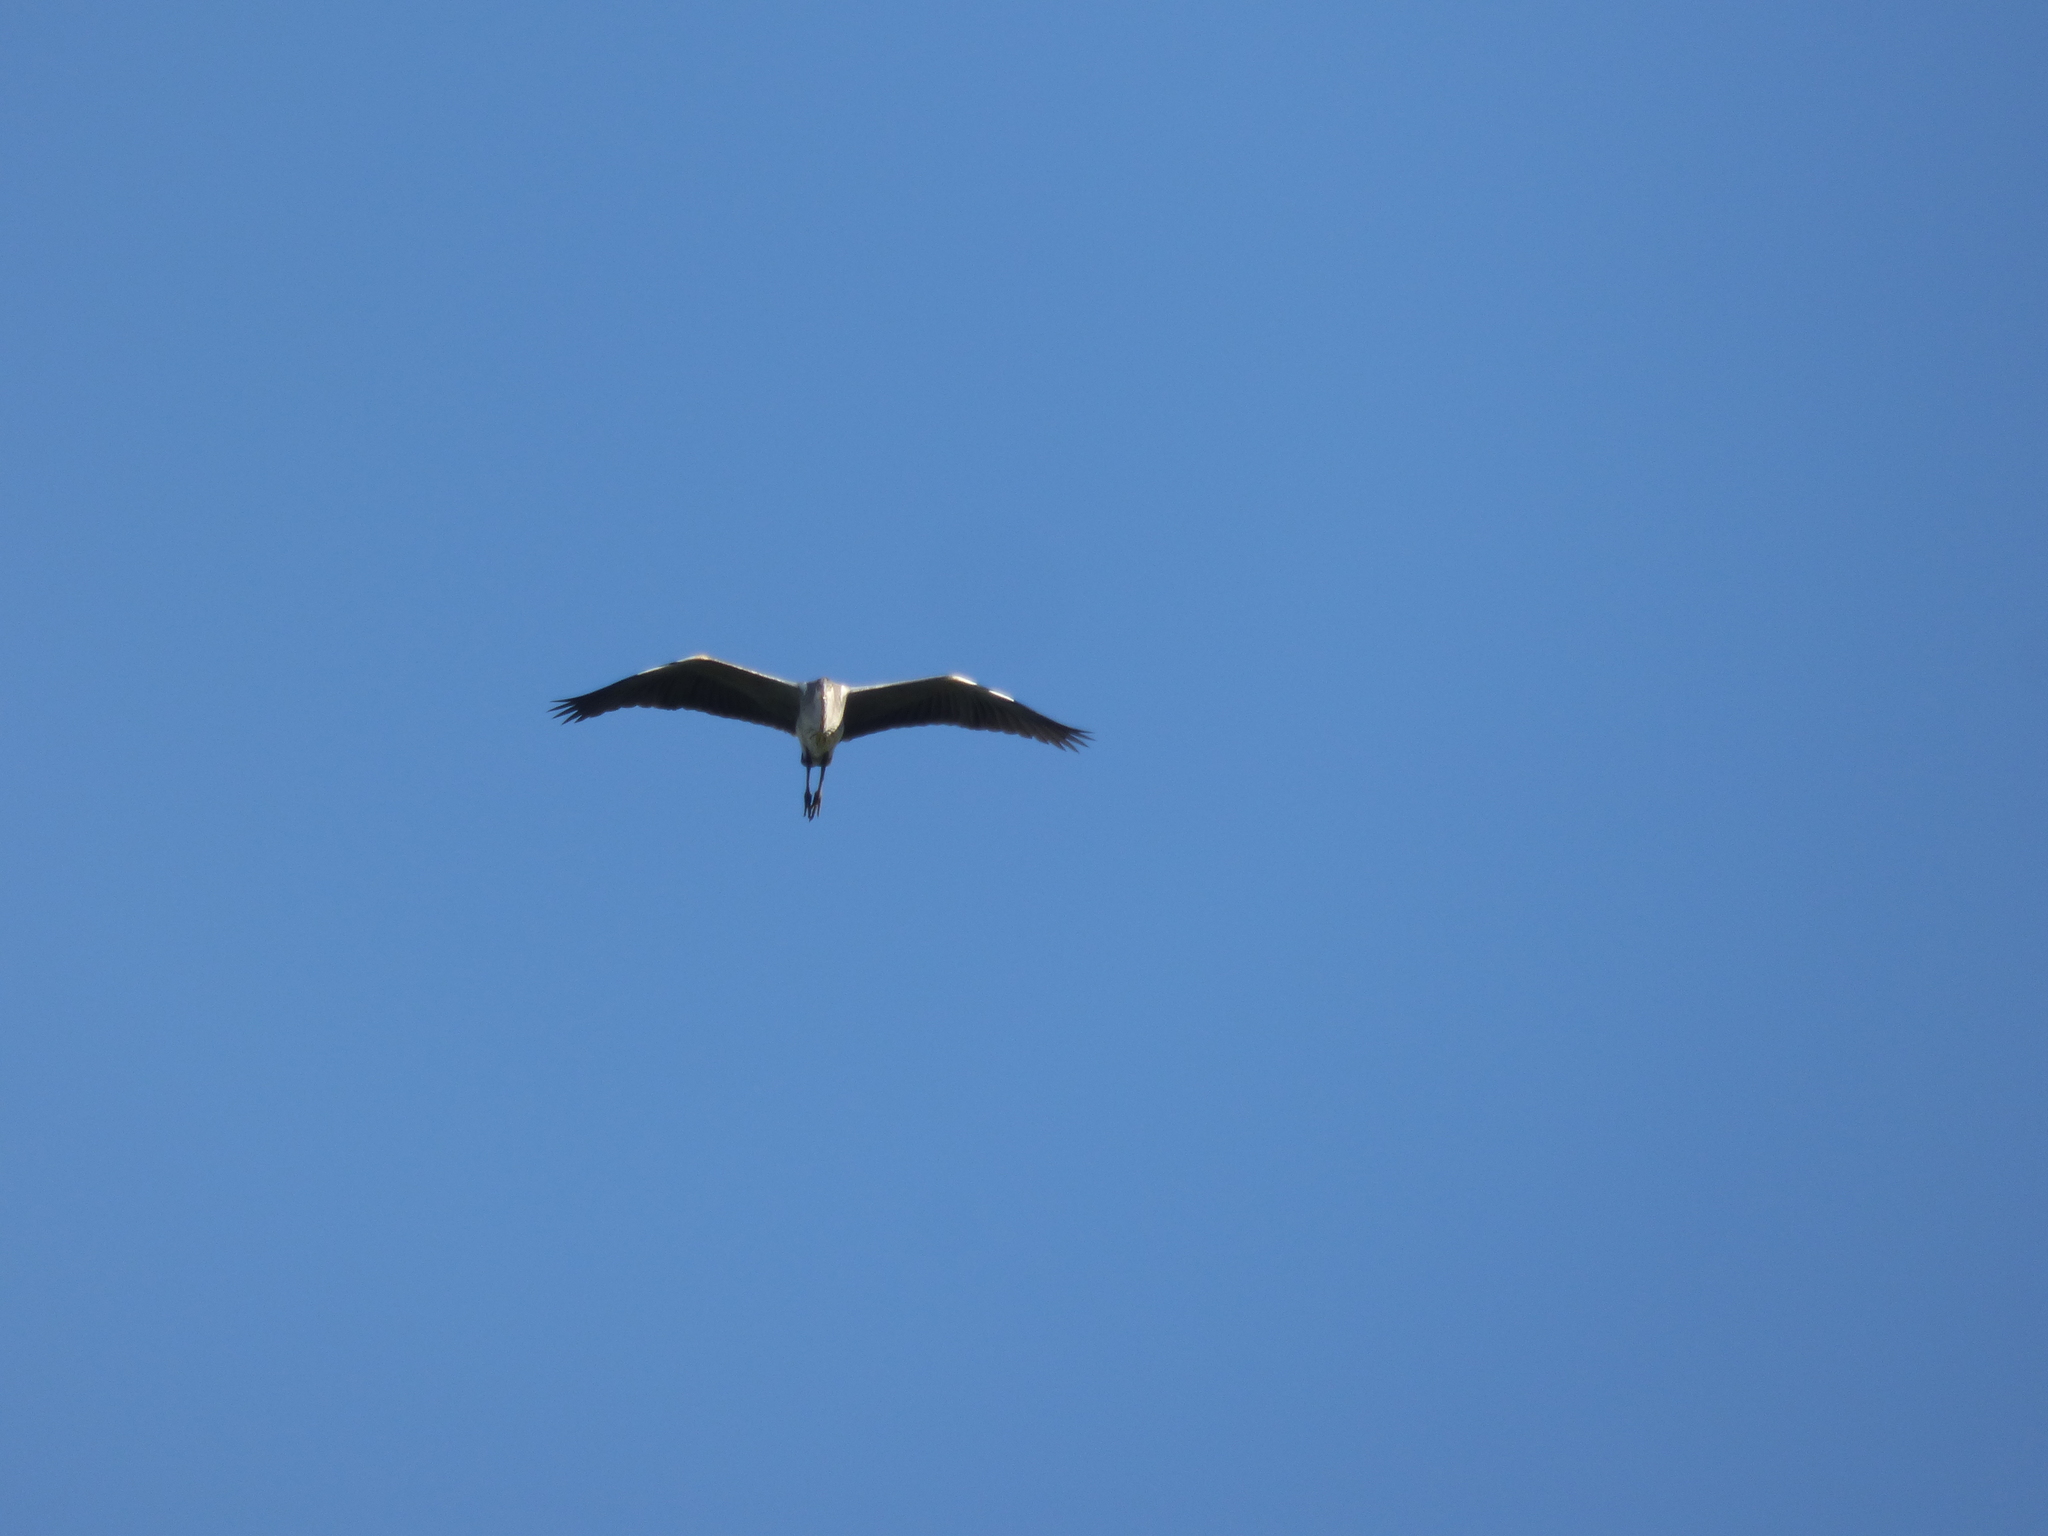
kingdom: Animalia
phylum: Chordata
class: Aves
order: Pelecaniformes
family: Ardeidae
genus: Ardea
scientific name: Ardea cocoi
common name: Cocoi heron
